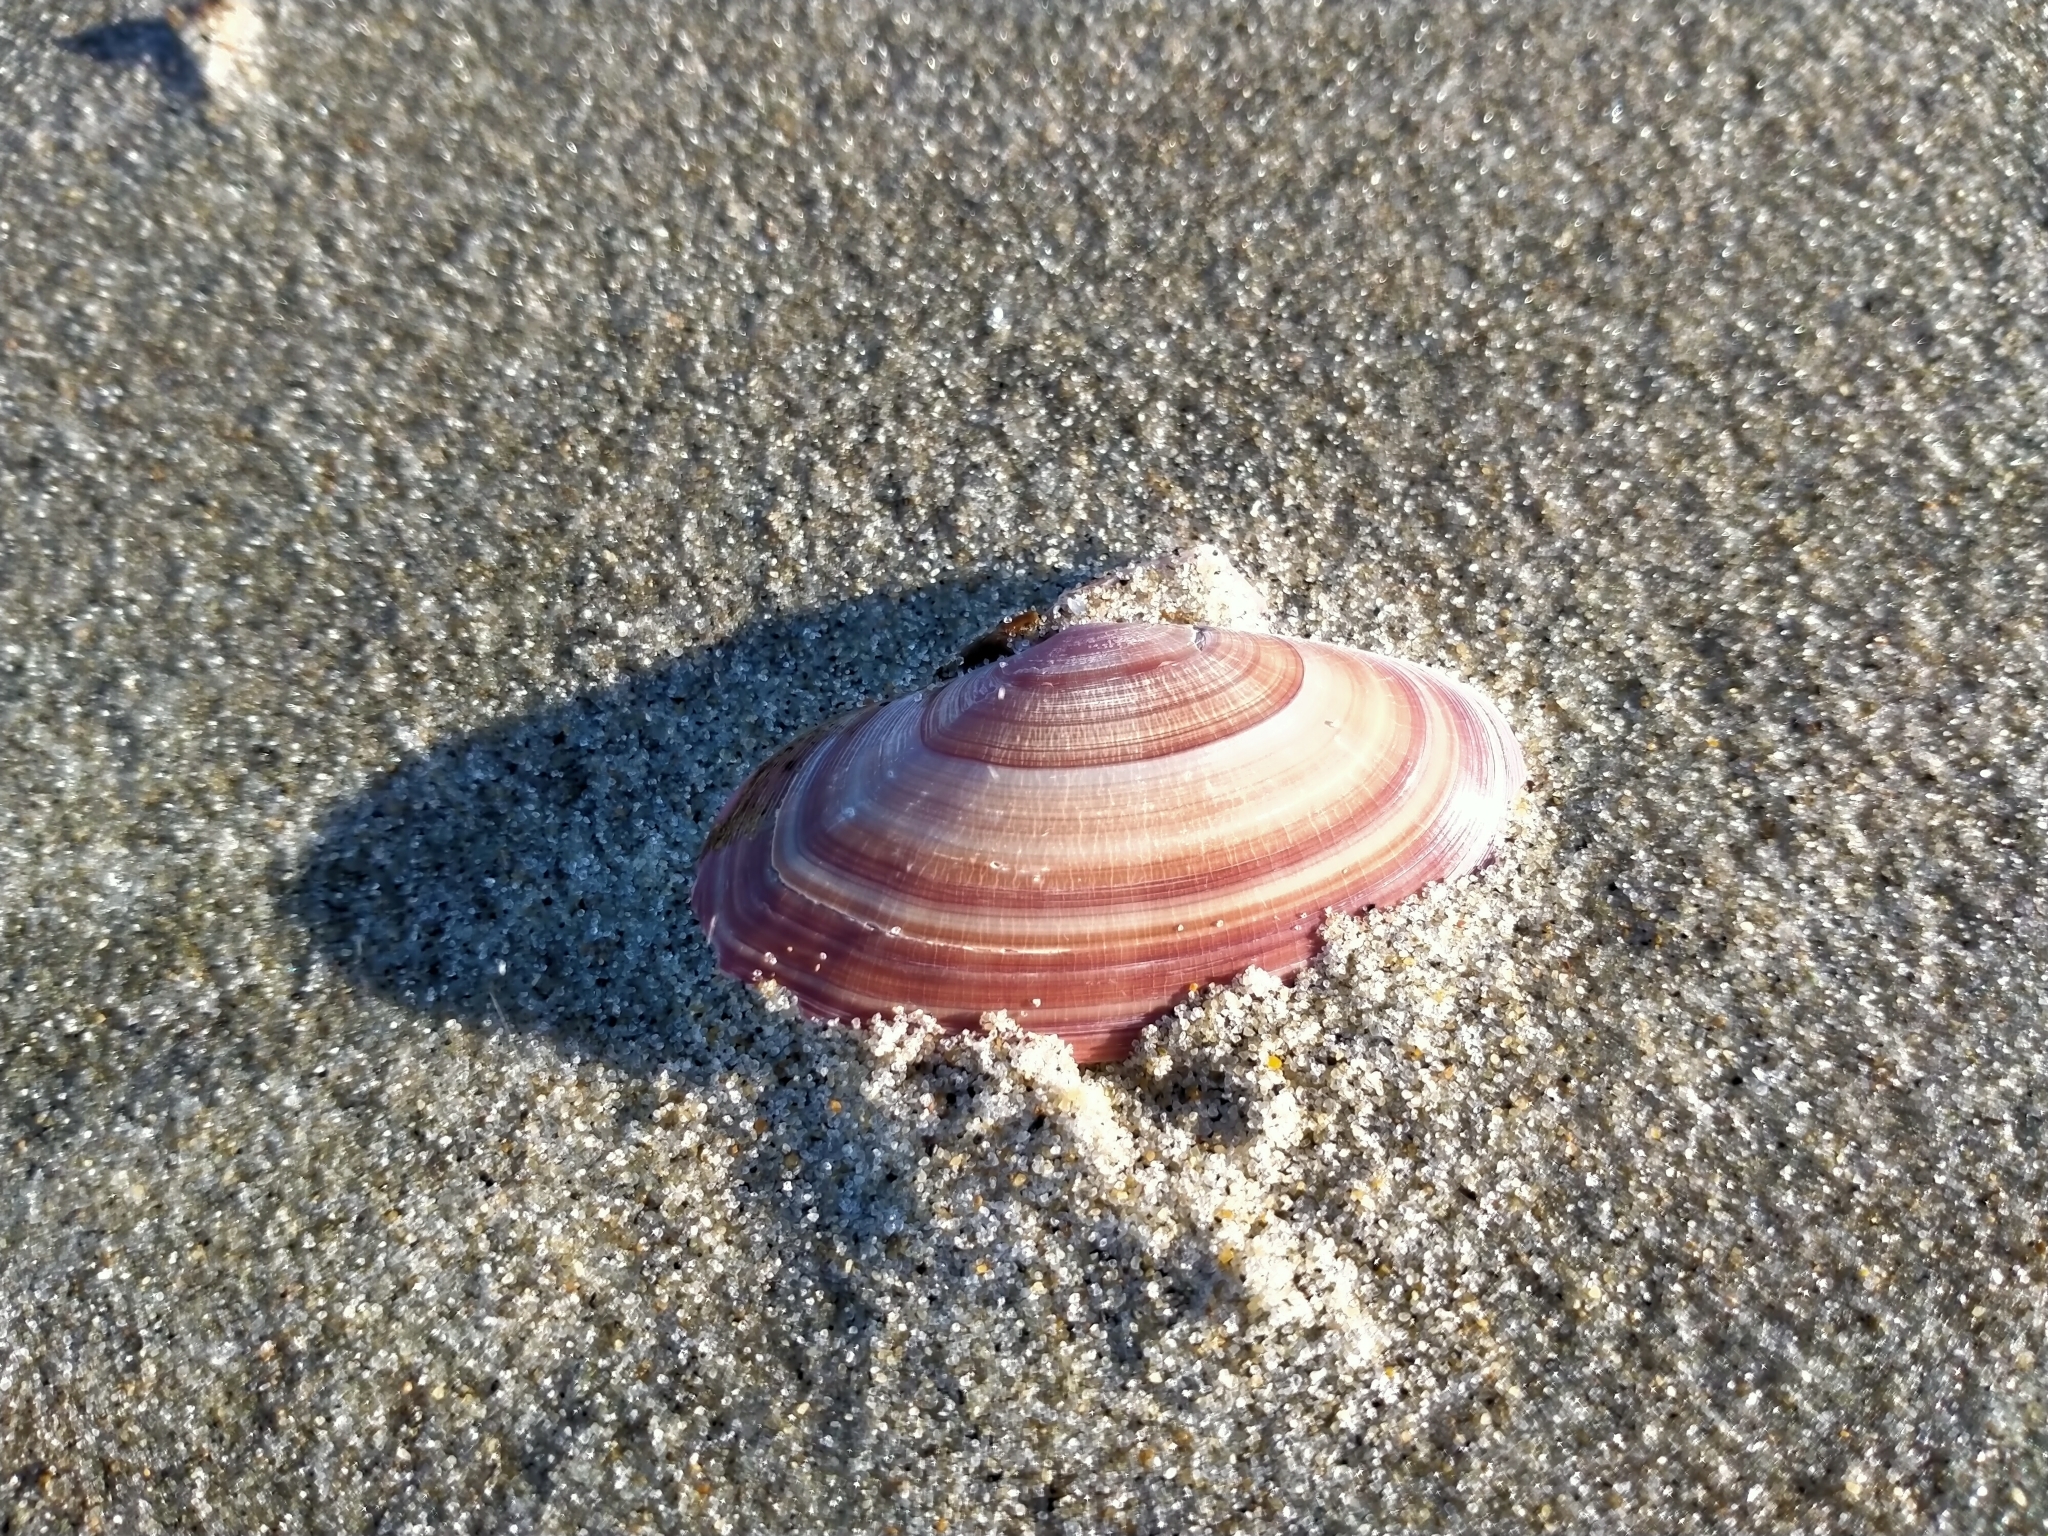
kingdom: Animalia
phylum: Mollusca
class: Bivalvia
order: Cardiida
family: Psammobiidae
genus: Gari
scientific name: Gari lineolata
